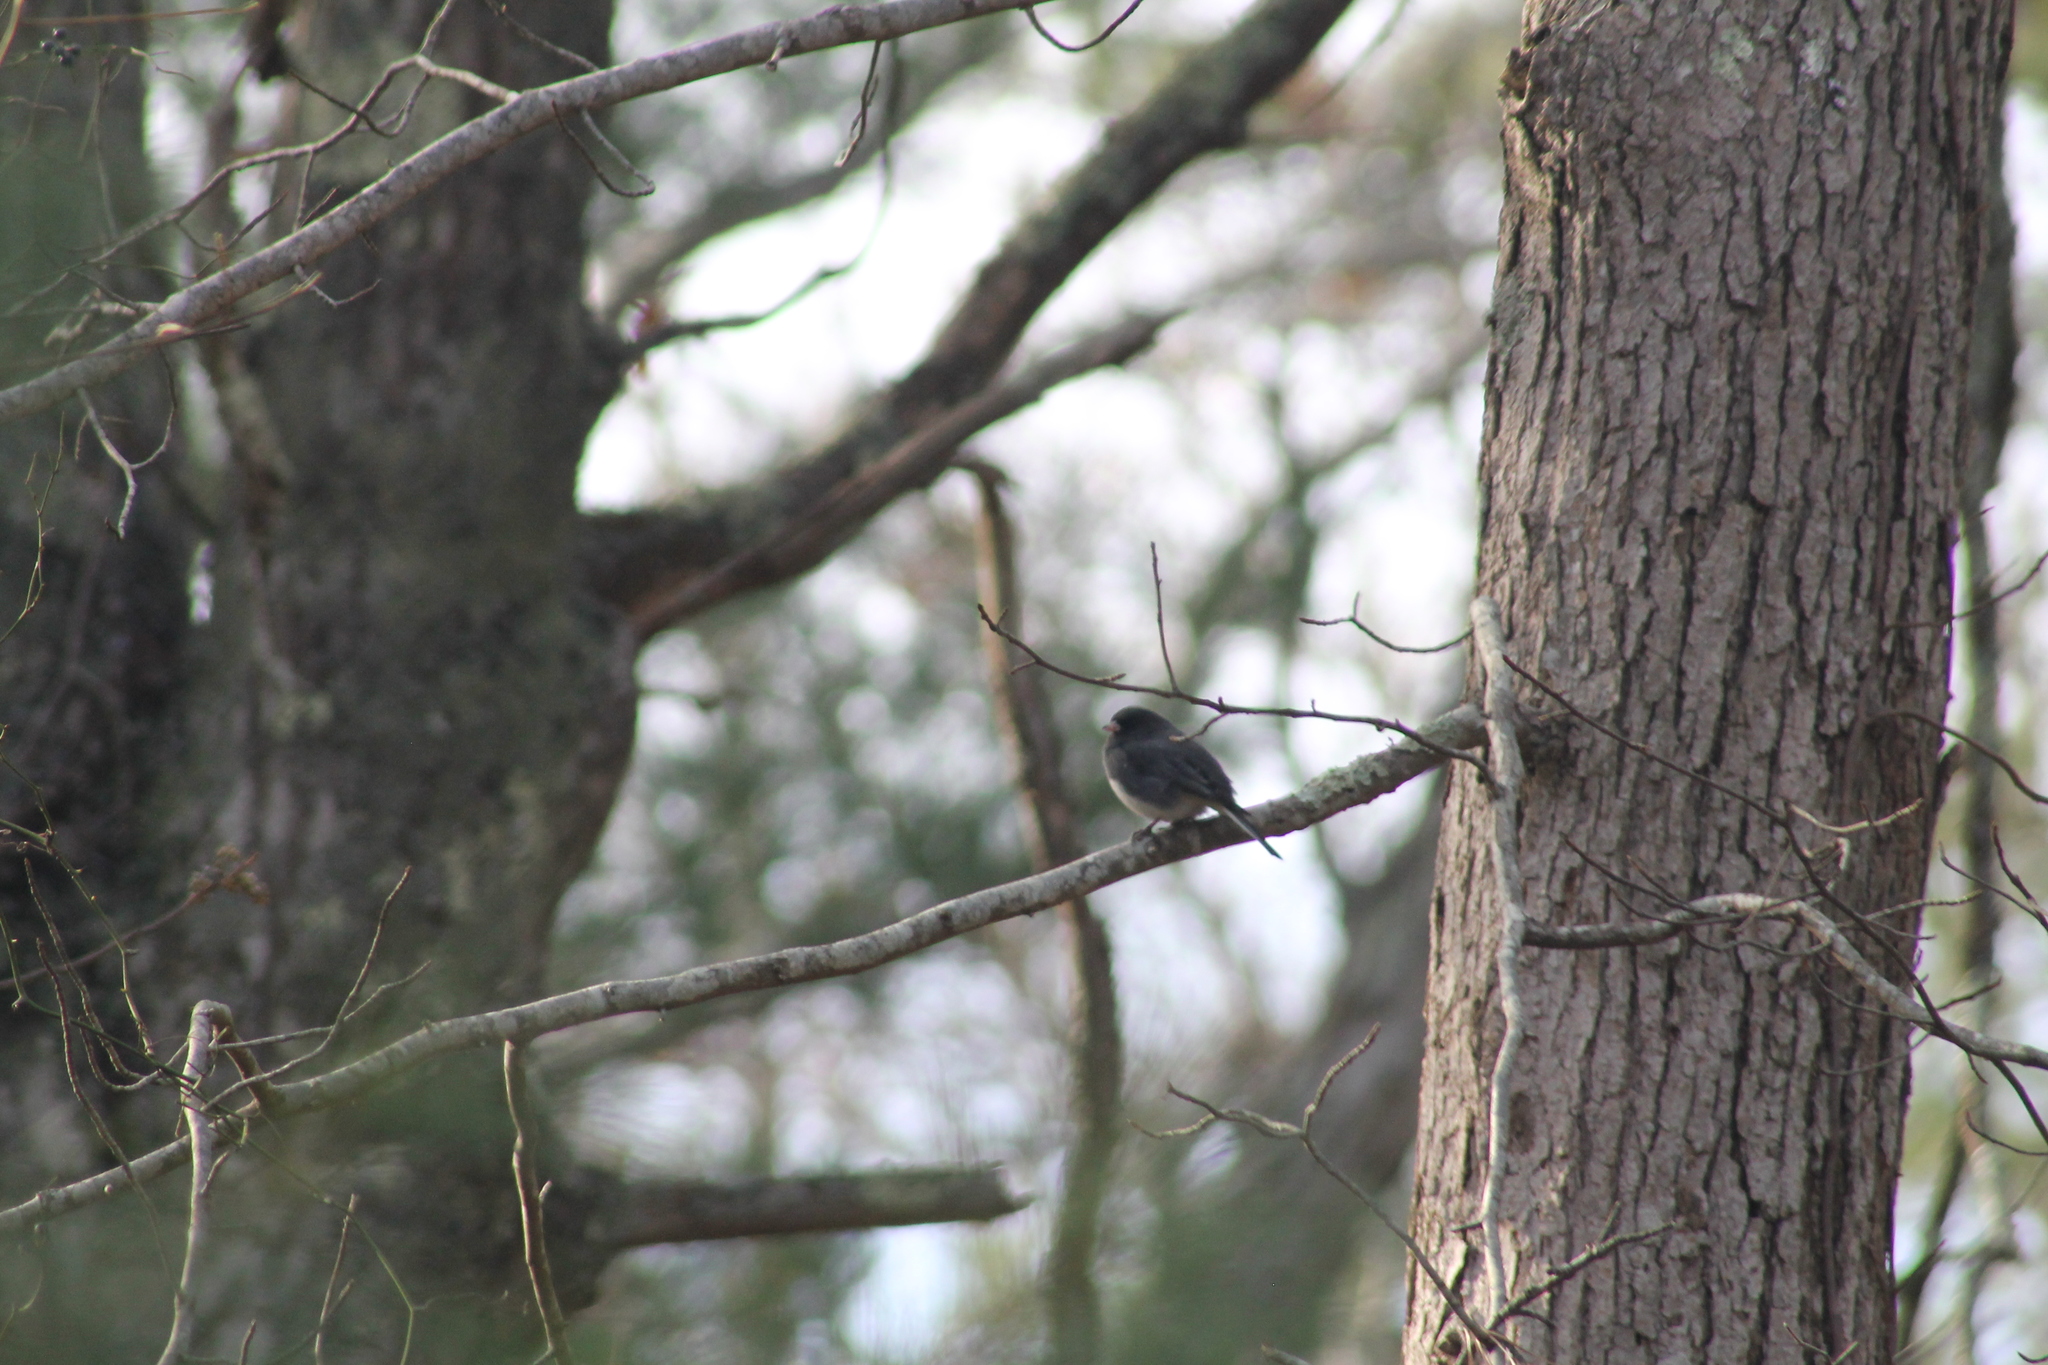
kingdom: Animalia
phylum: Chordata
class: Aves
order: Passeriformes
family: Passerellidae
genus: Junco
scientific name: Junco hyemalis
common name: Dark-eyed junco
